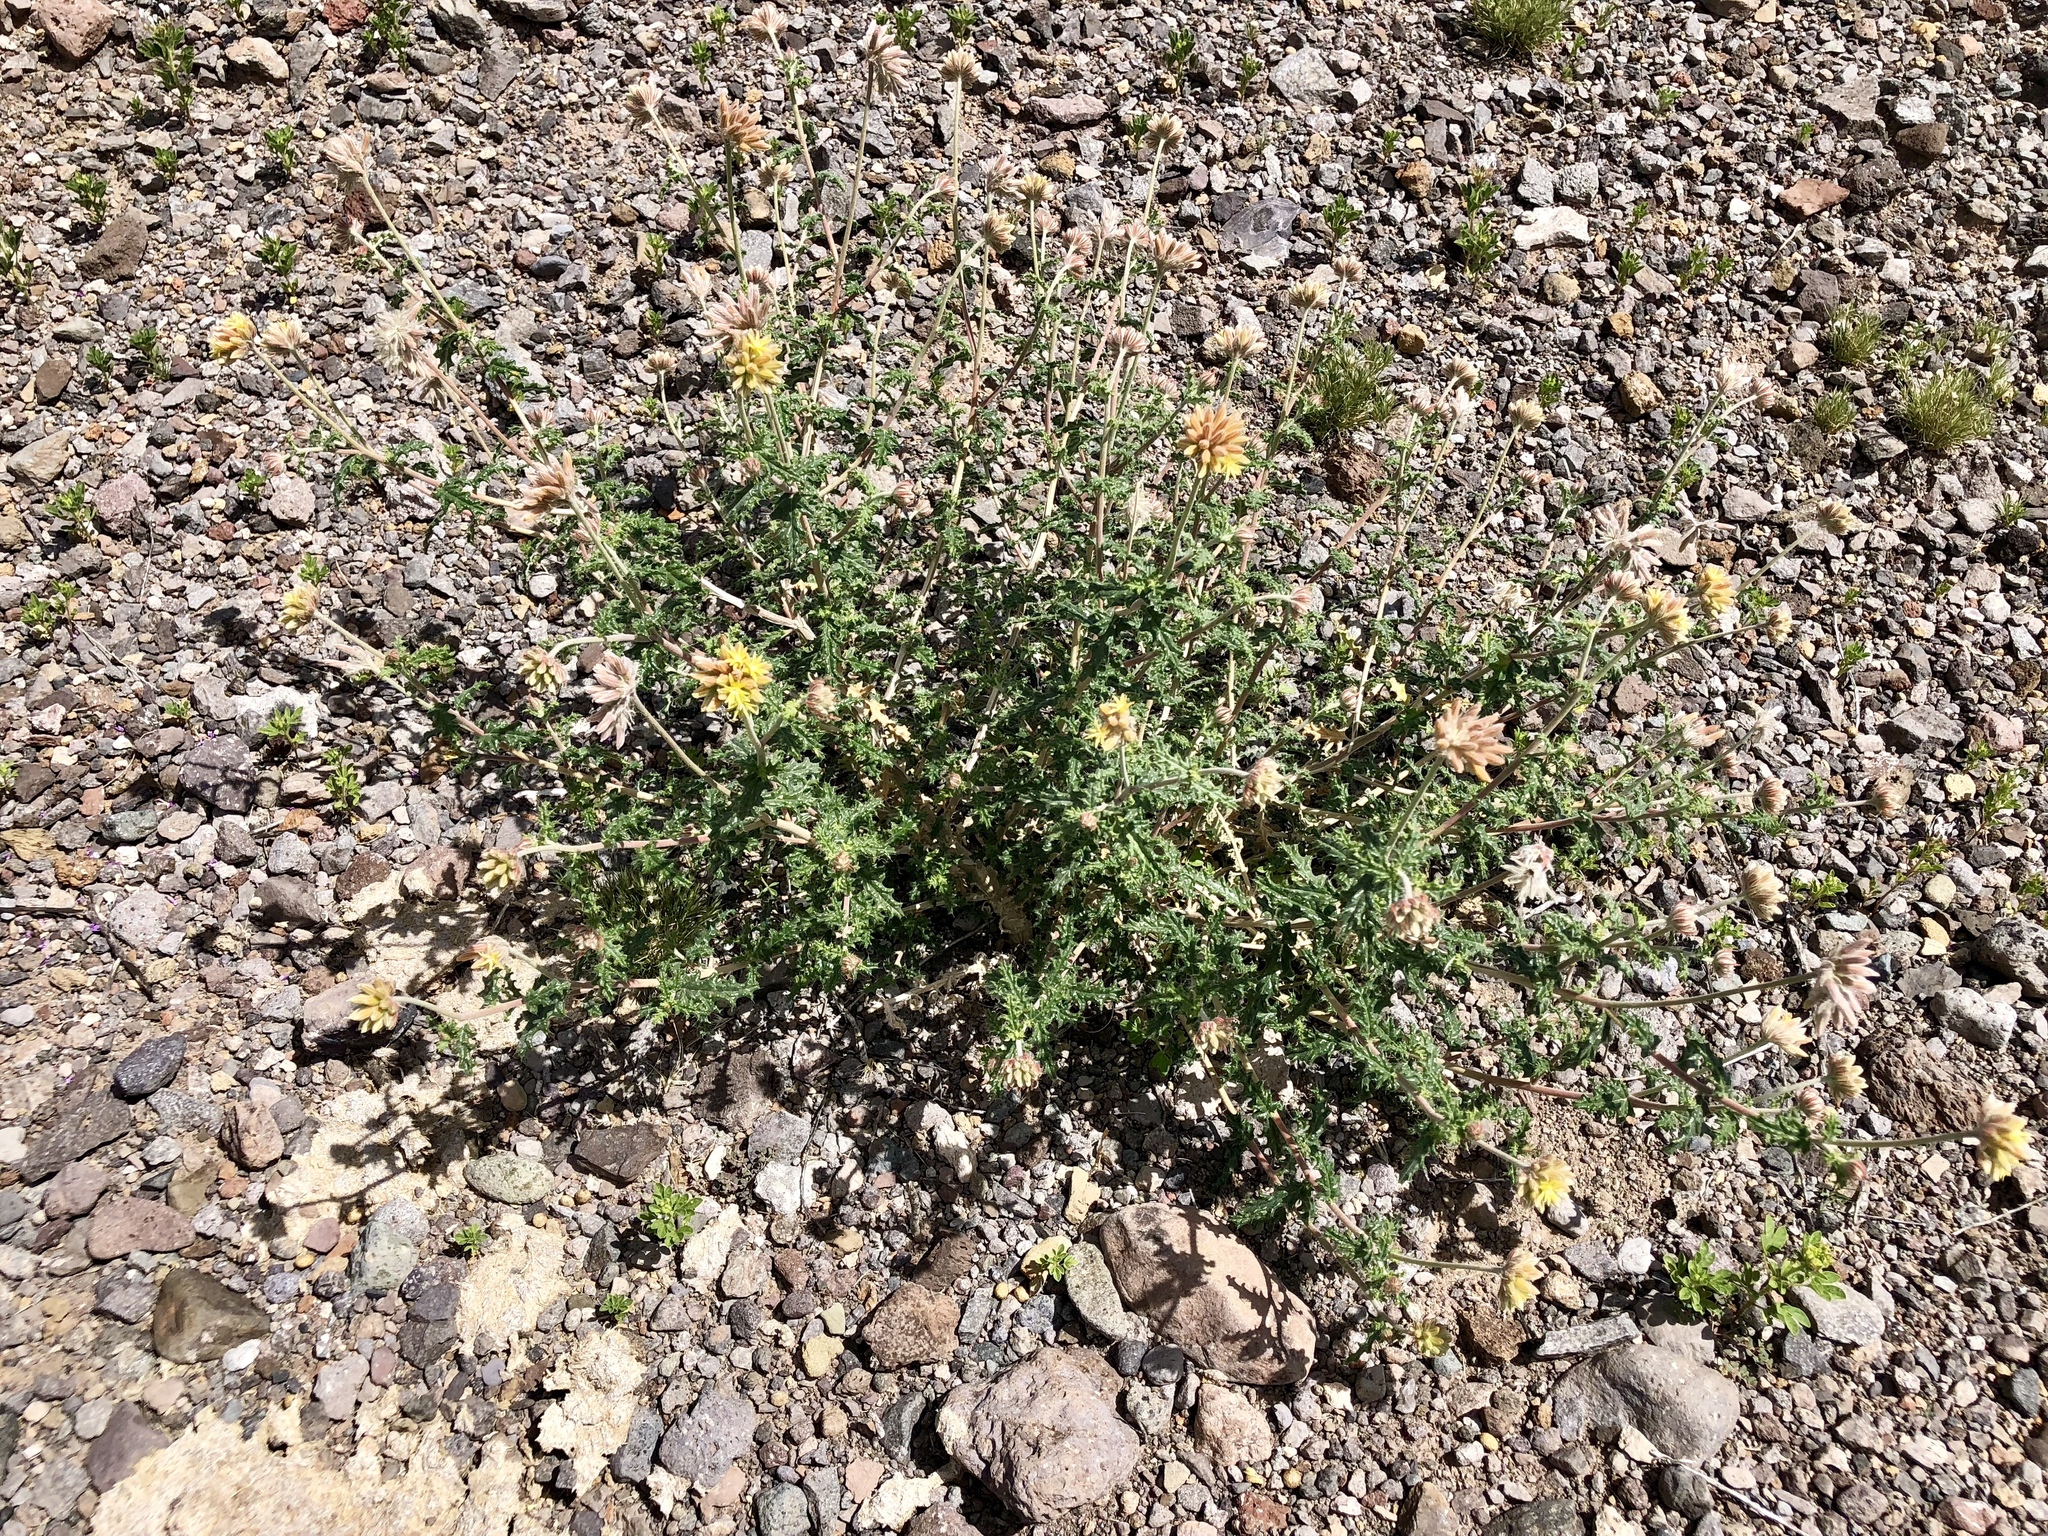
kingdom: Plantae
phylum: Tracheophyta
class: Magnoliopsida
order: Cornales
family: Loasaceae
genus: Cevallia
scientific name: Cevallia sinuata
